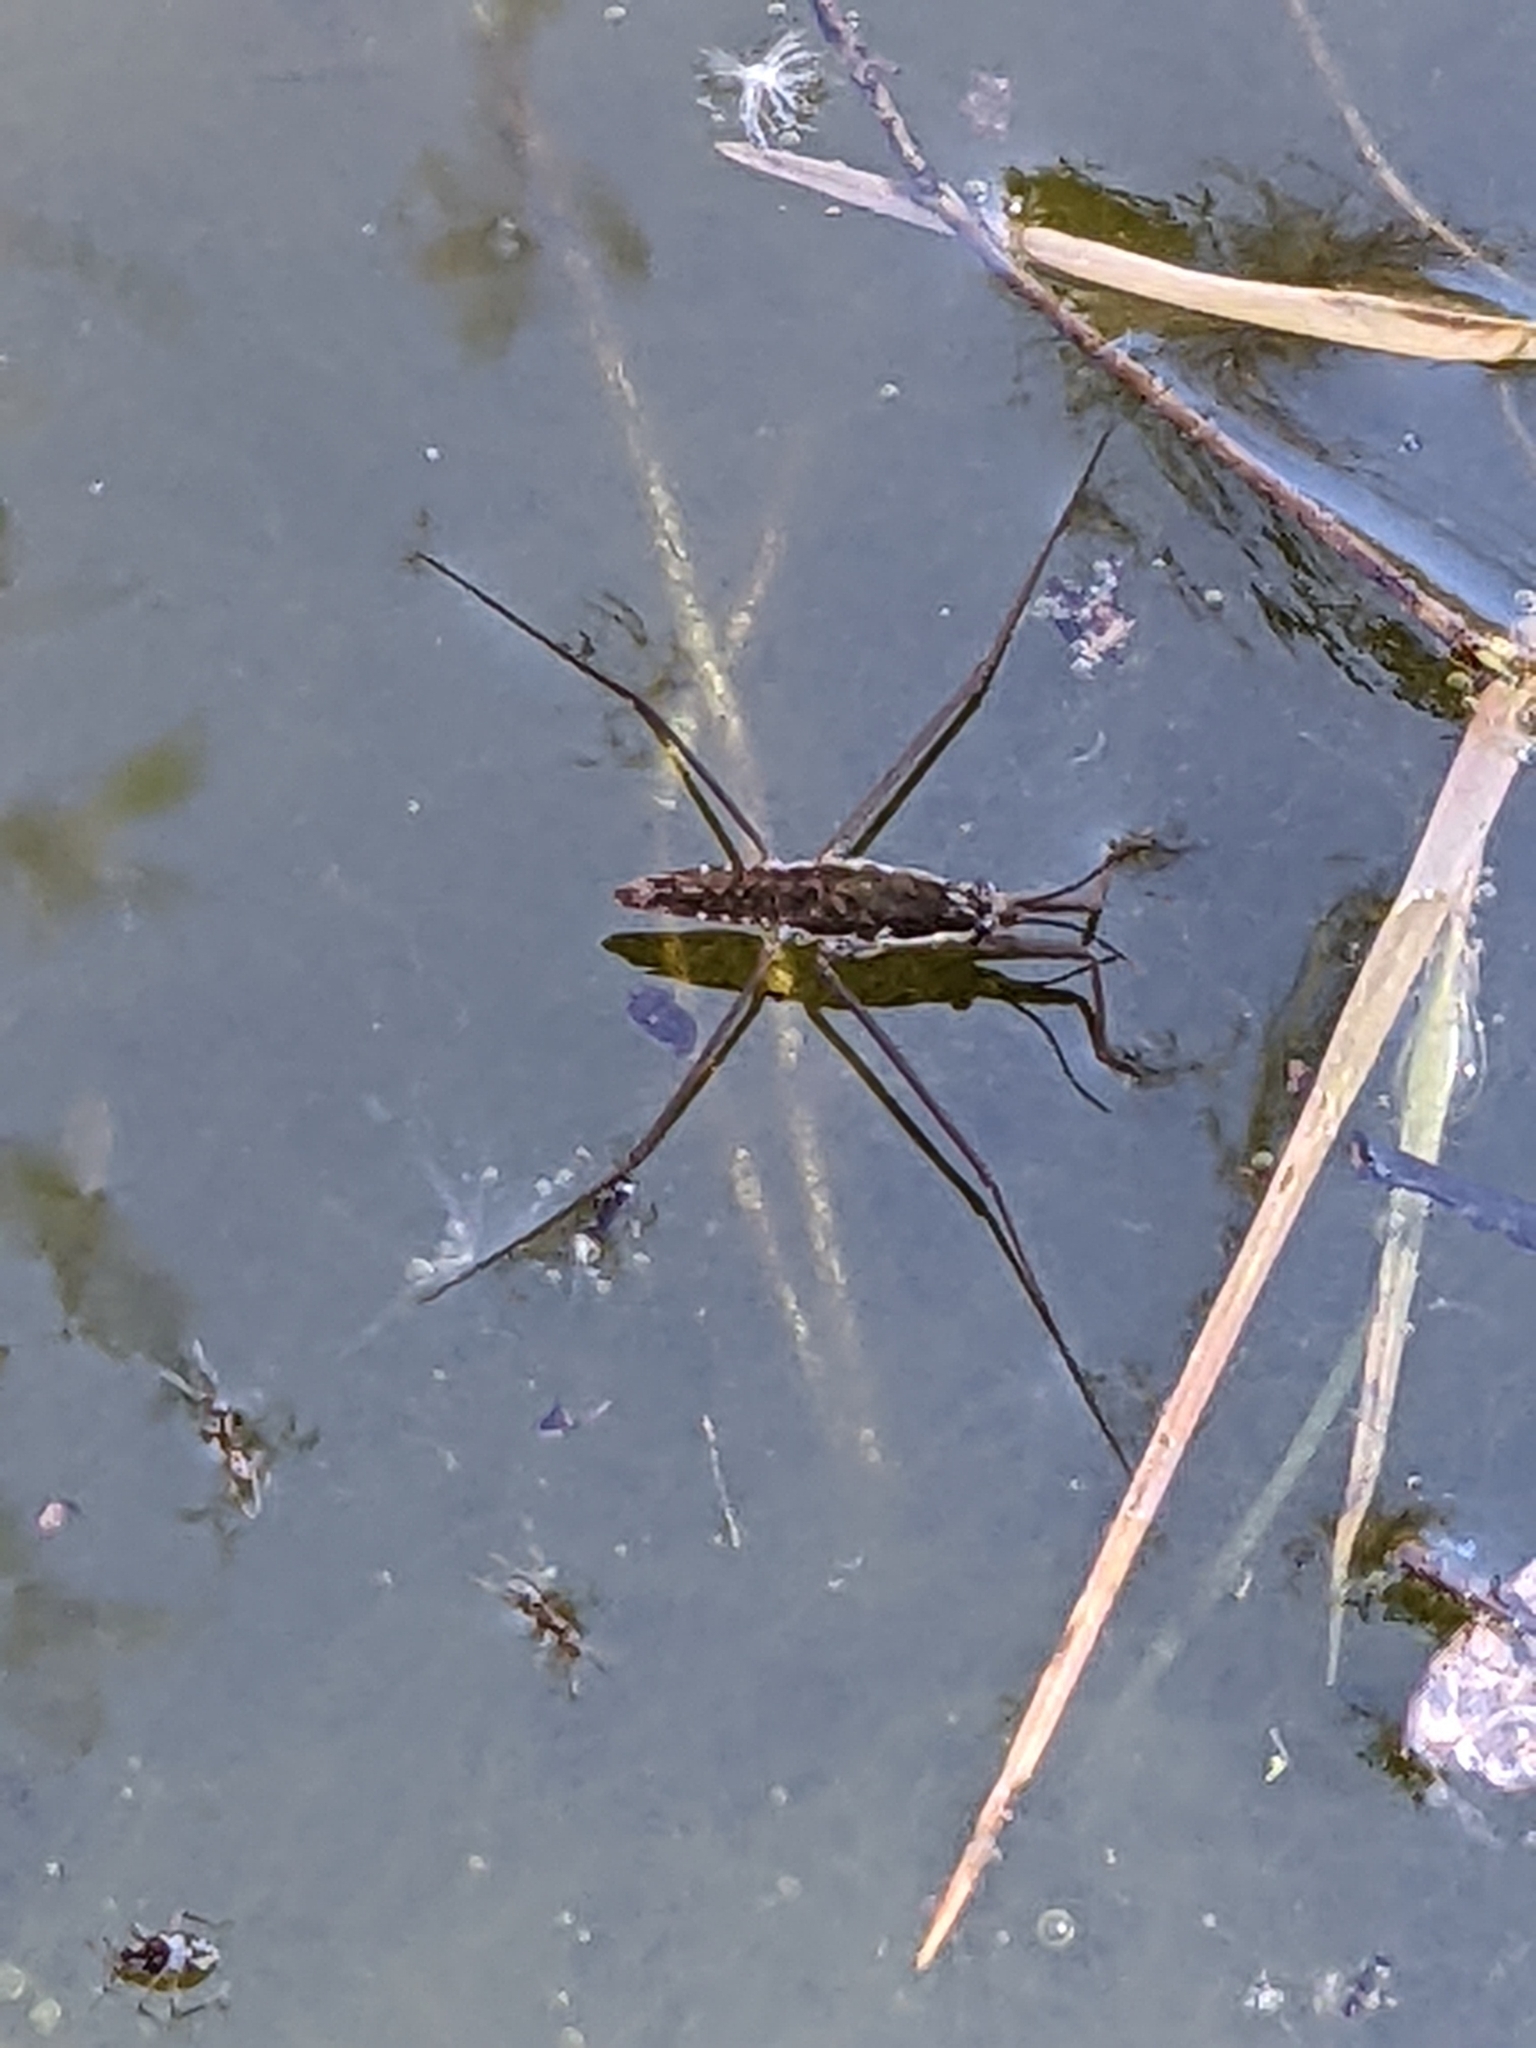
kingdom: Animalia
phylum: Arthropoda
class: Insecta
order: Hemiptera
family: Gerridae
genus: Aquarius
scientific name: Aquarius remigis
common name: Common water strider
